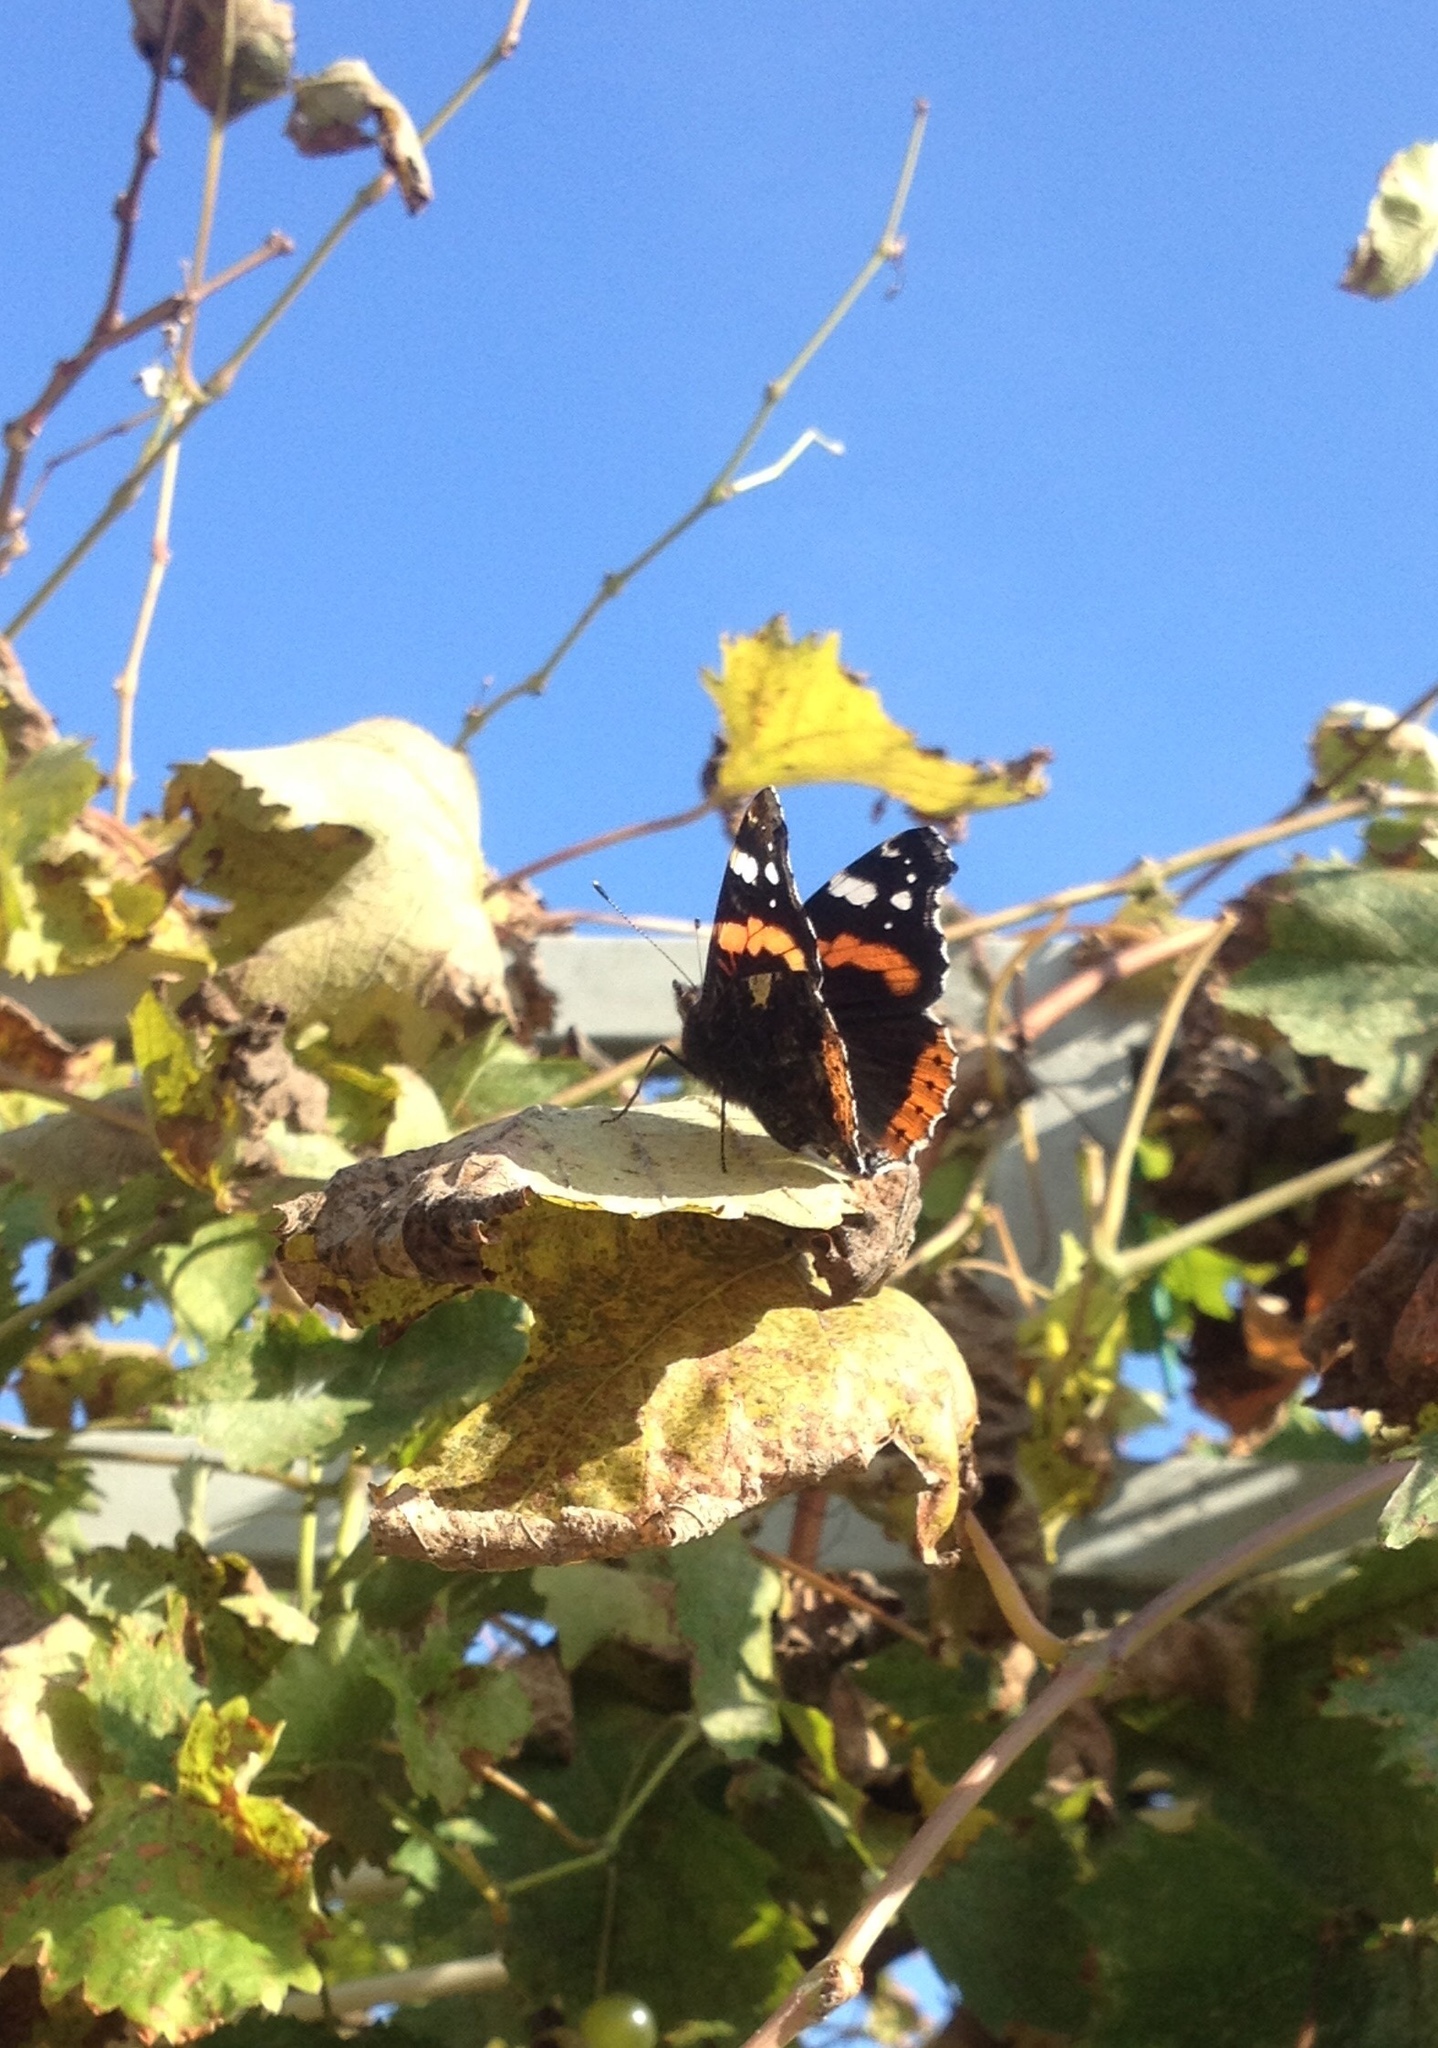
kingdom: Animalia
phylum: Arthropoda
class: Insecta
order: Lepidoptera
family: Nymphalidae
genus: Vanessa
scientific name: Vanessa atalanta
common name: Red admiral
